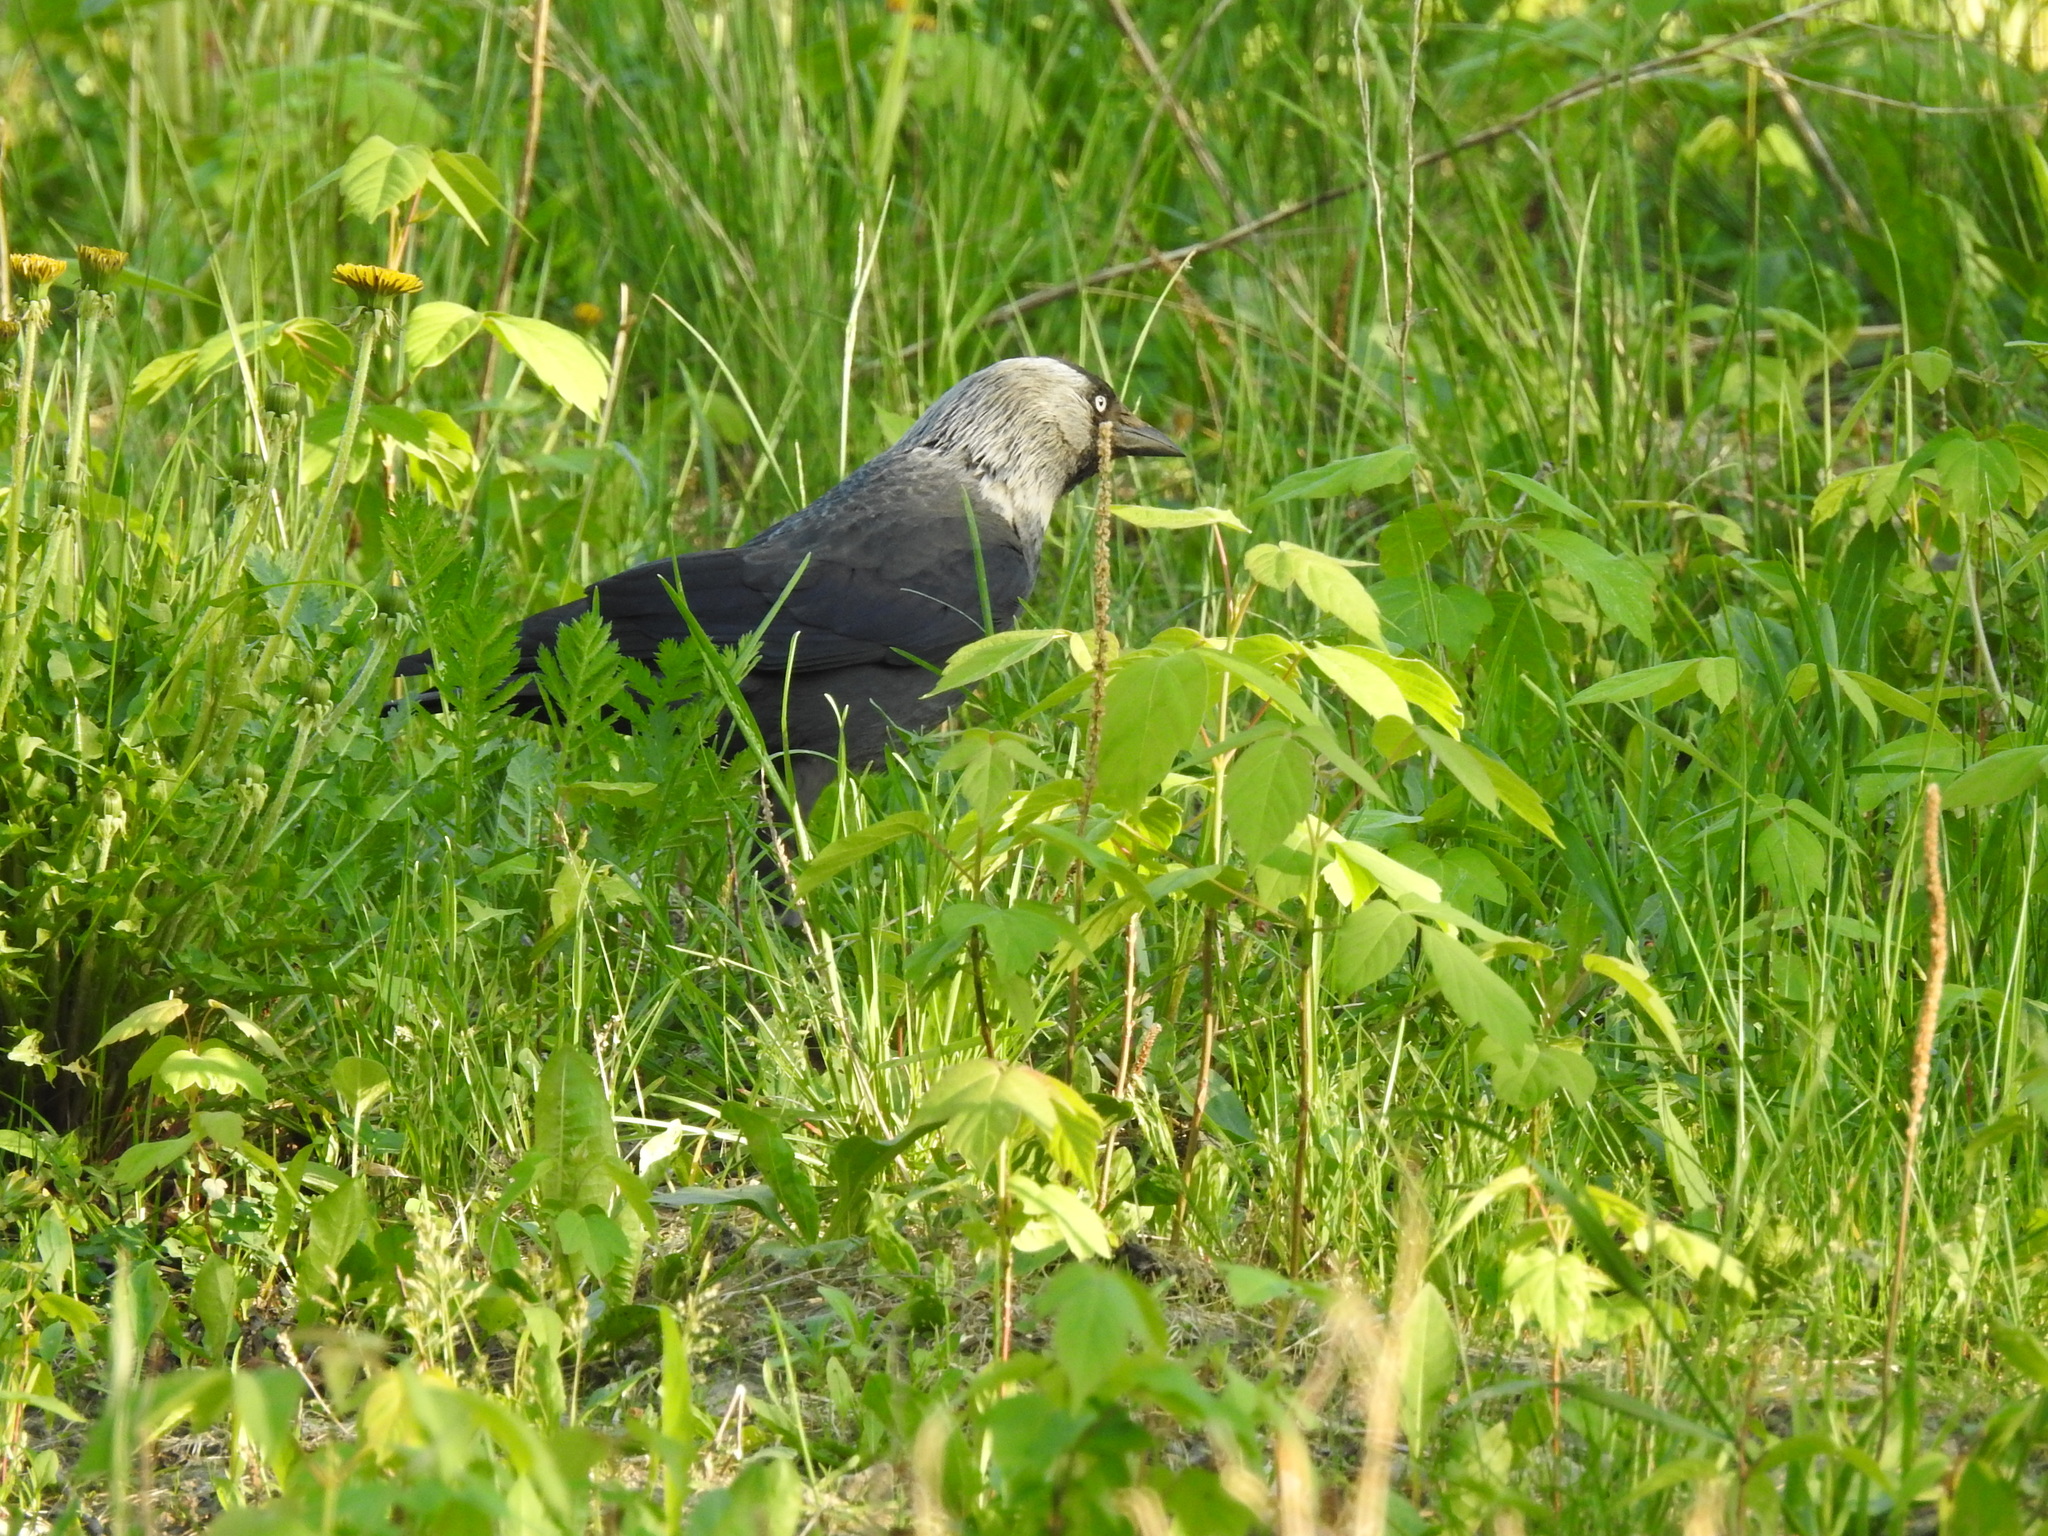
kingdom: Animalia
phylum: Chordata
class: Aves
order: Passeriformes
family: Corvidae
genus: Coloeus
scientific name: Coloeus monedula
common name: Western jackdaw
